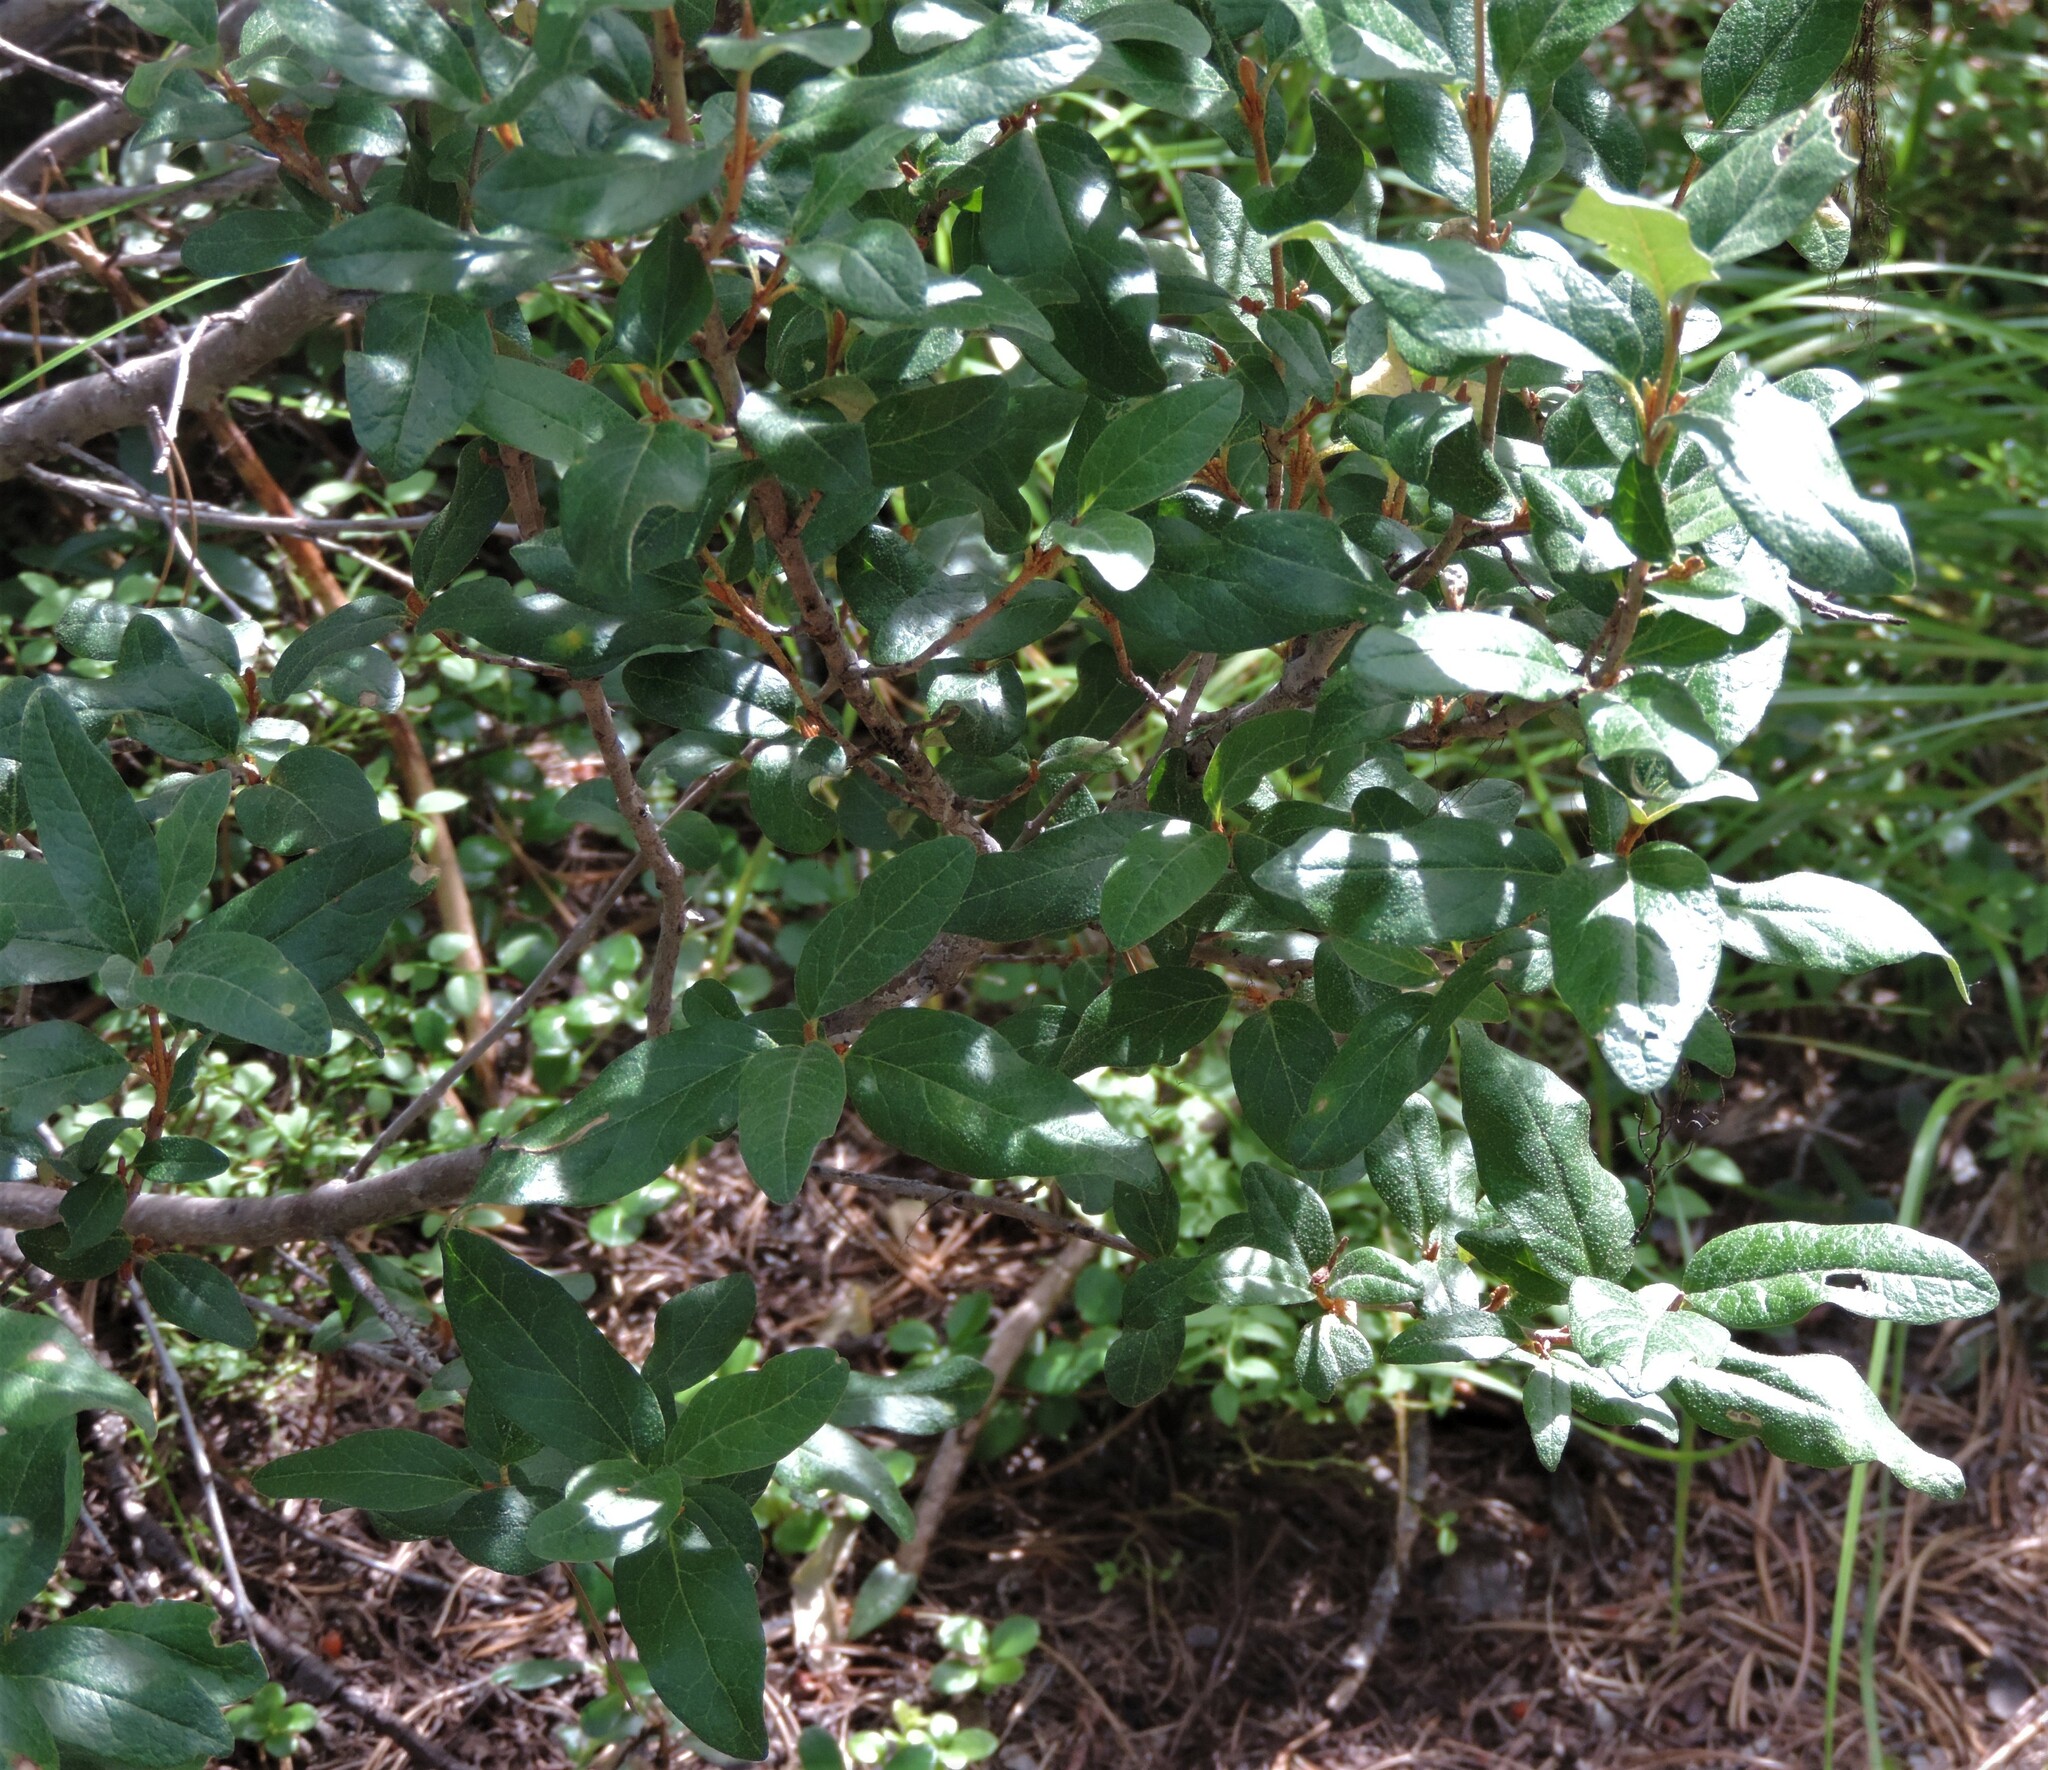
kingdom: Plantae
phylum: Tracheophyta
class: Magnoliopsida
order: Rosales
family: Elaeagnaceae
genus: Shepherdia
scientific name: Shepherdia canadensis
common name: Soapberry
